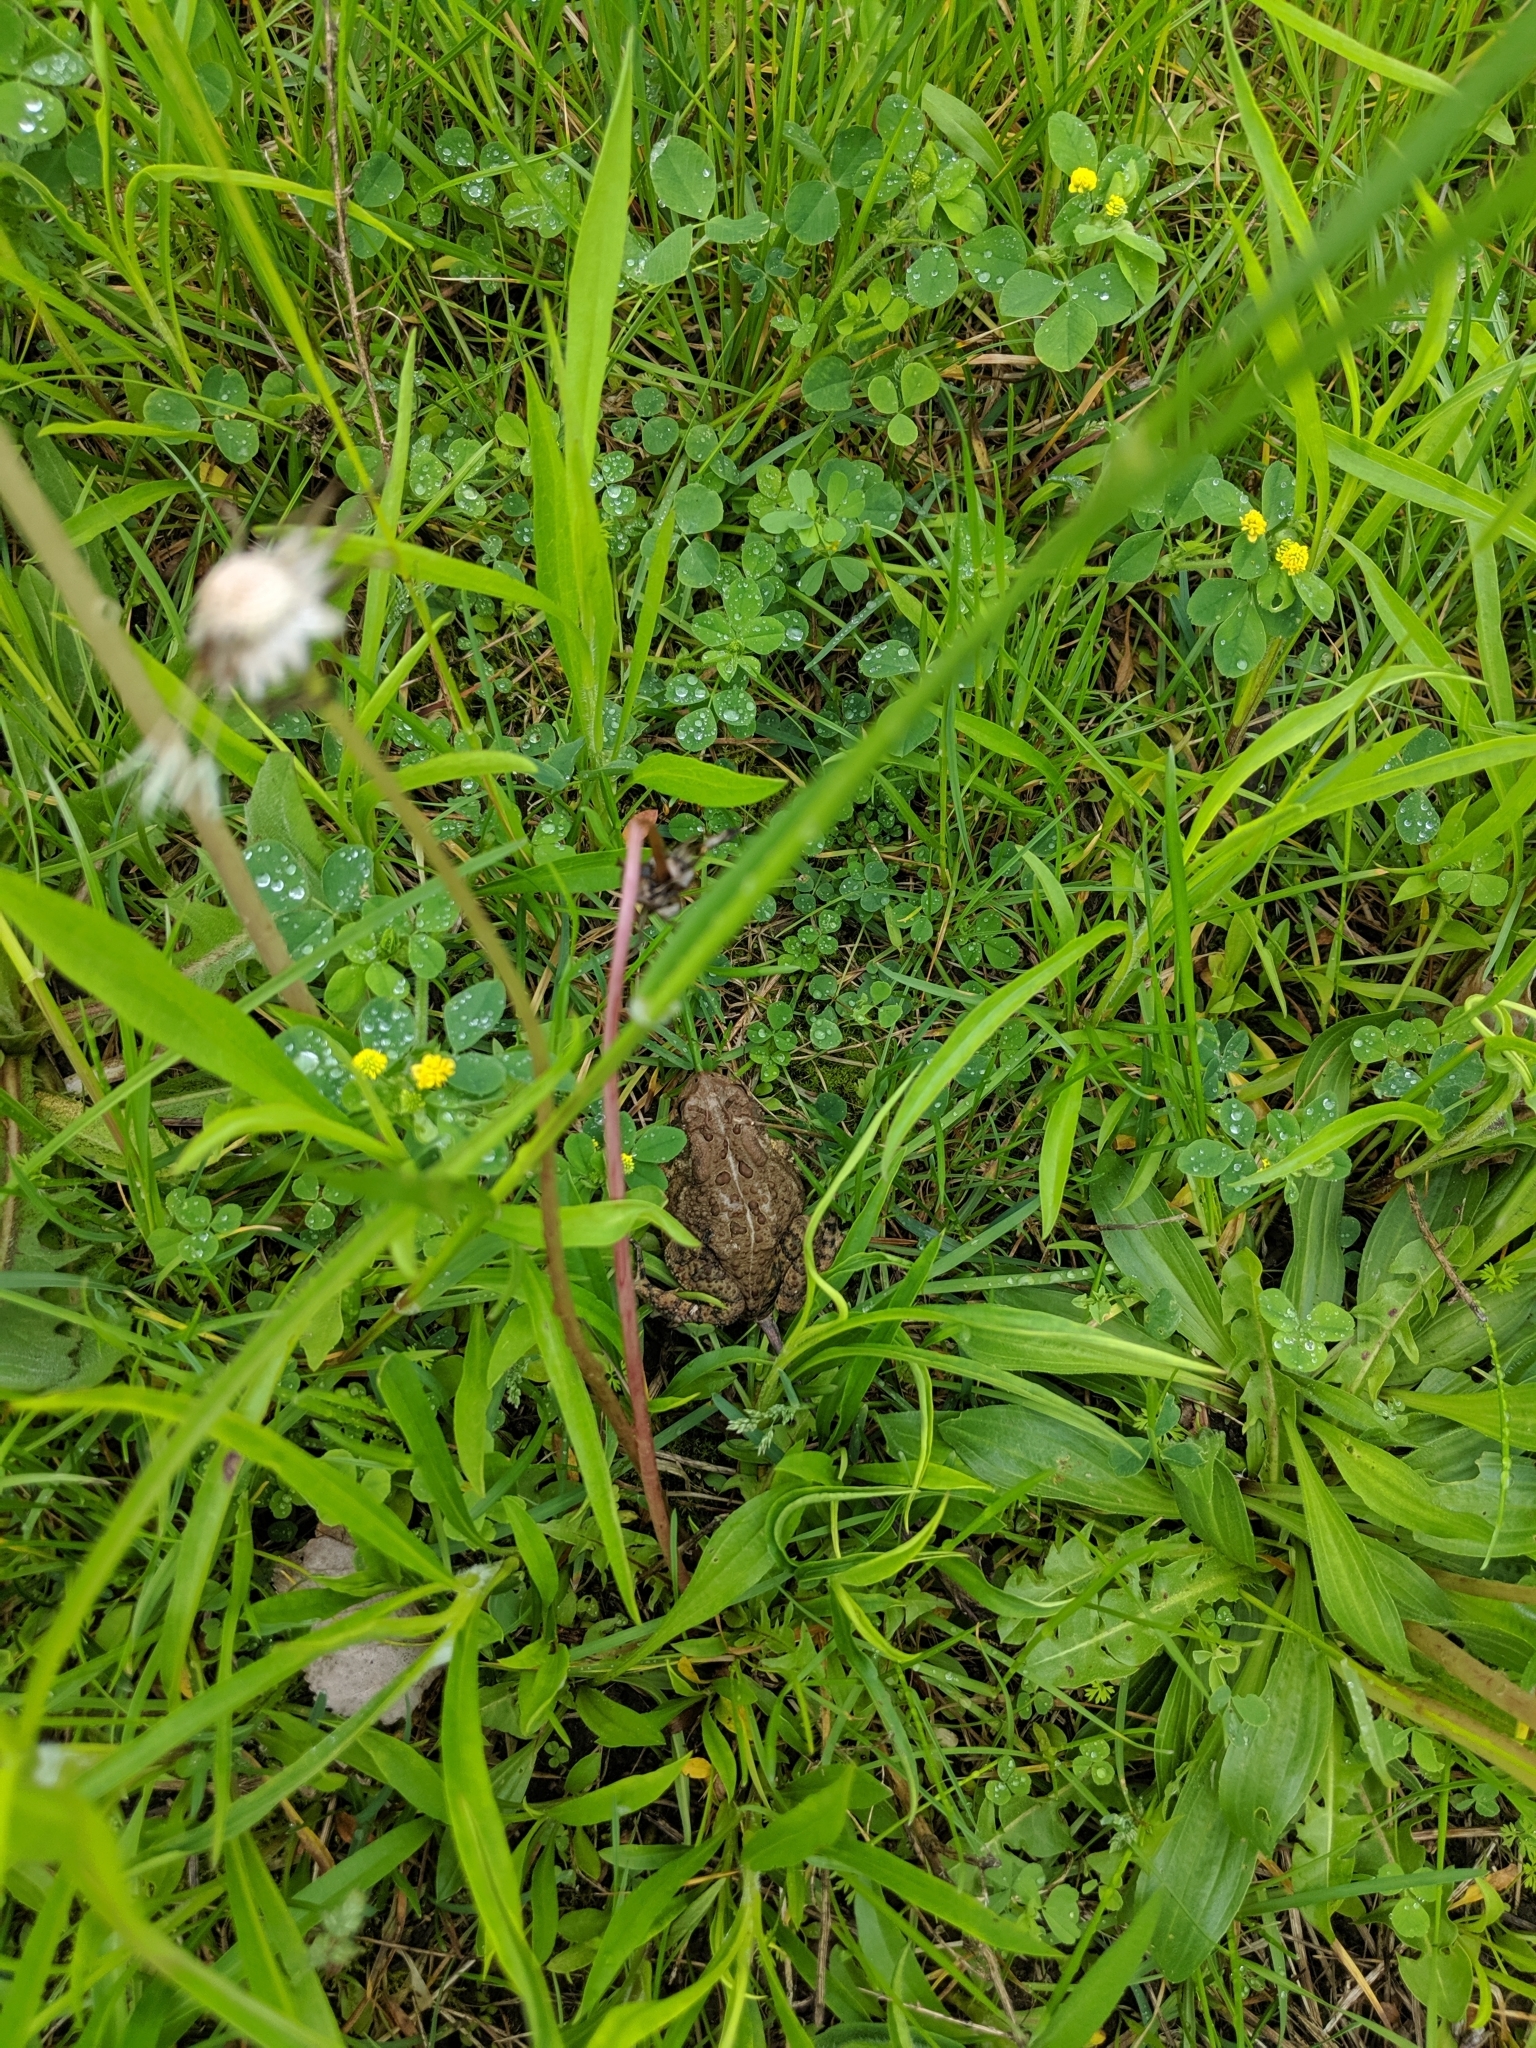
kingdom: Animalia
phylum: Chordata
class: Amphibia
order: Anura
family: Bufonidae
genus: Anaxyrus
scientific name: Anaxyrus americanus
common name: American toad
